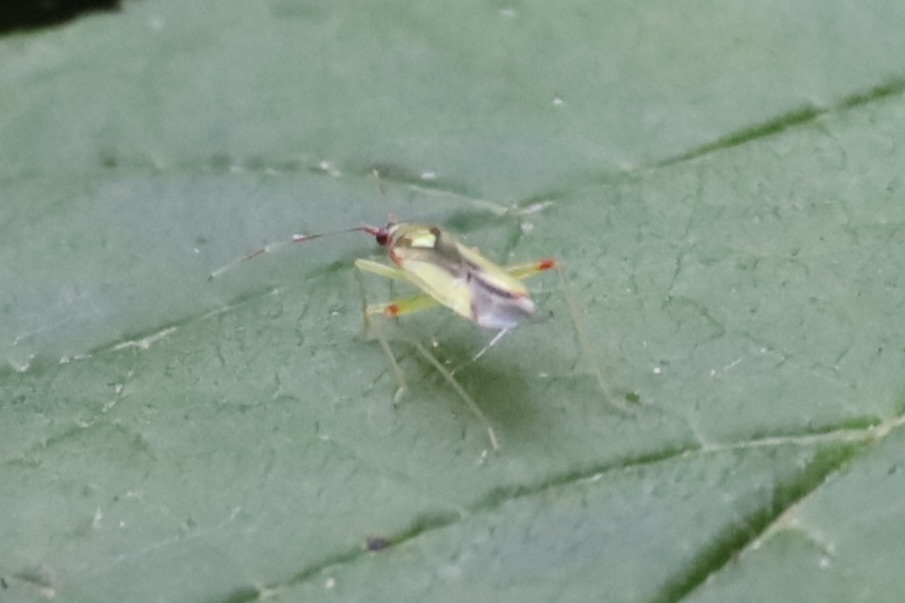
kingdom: Animalia
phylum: Arthropoda
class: Insecta
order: Hemiptera
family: Miridae
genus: Campyloneura
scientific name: Campyloneura virgula
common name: Predatory bug
